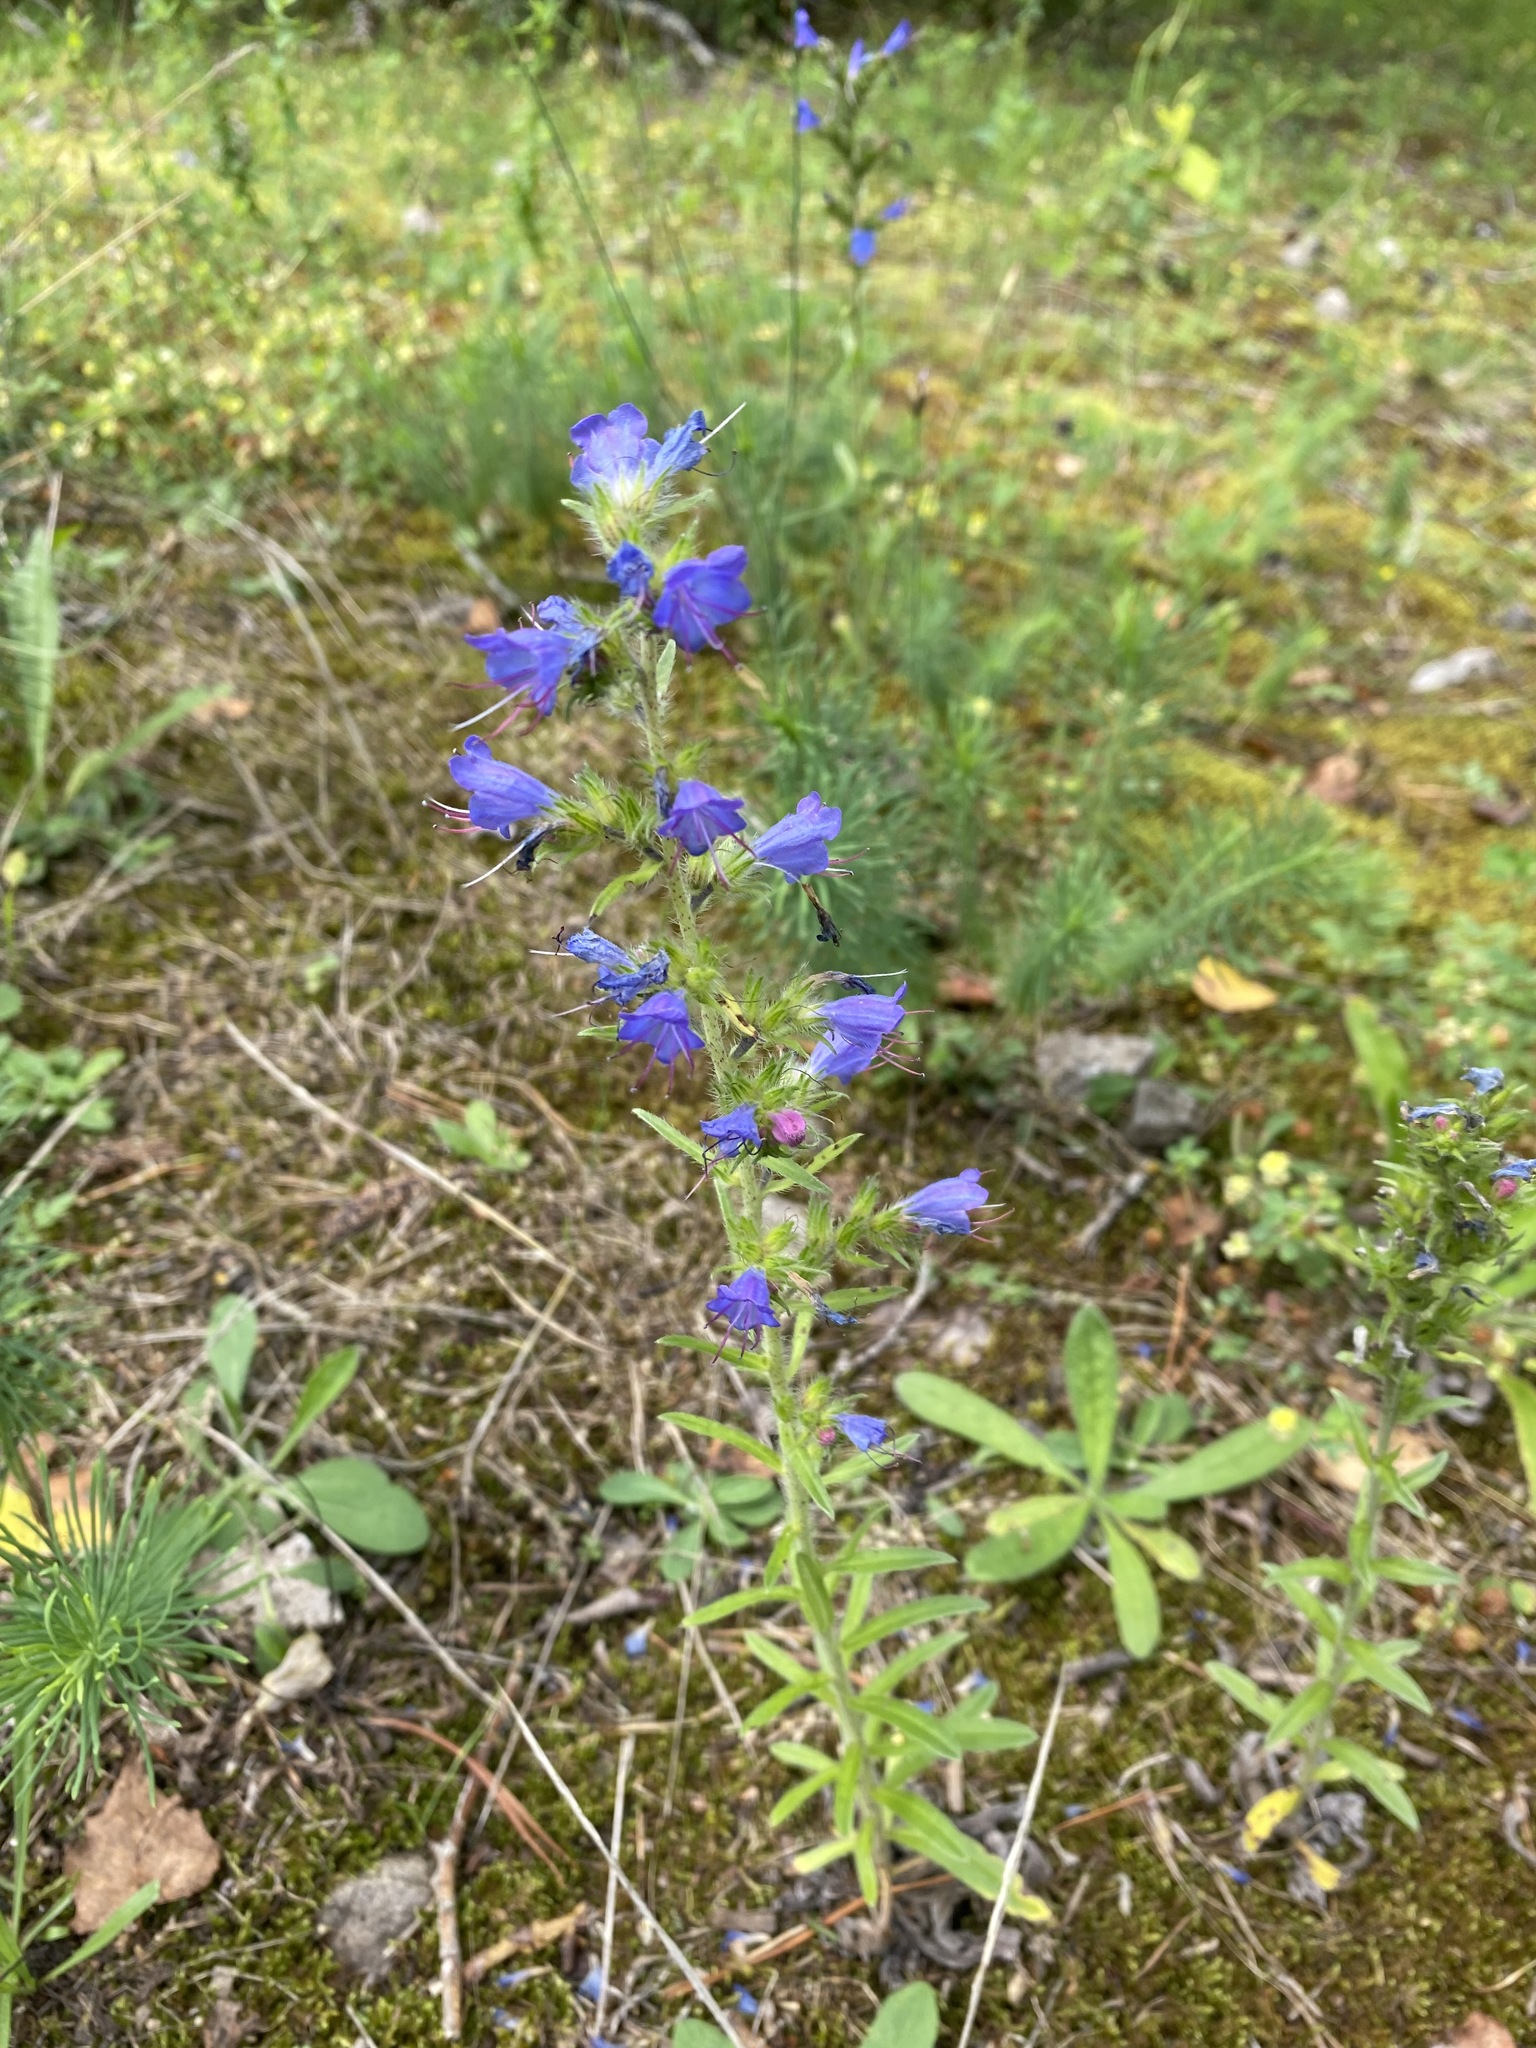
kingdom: Plantae
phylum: Tracheophyta
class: Magnoliopsida
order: Boraginales
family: Boraginaceae
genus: Echium
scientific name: Echium vulgare
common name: Common viper's bugloss
